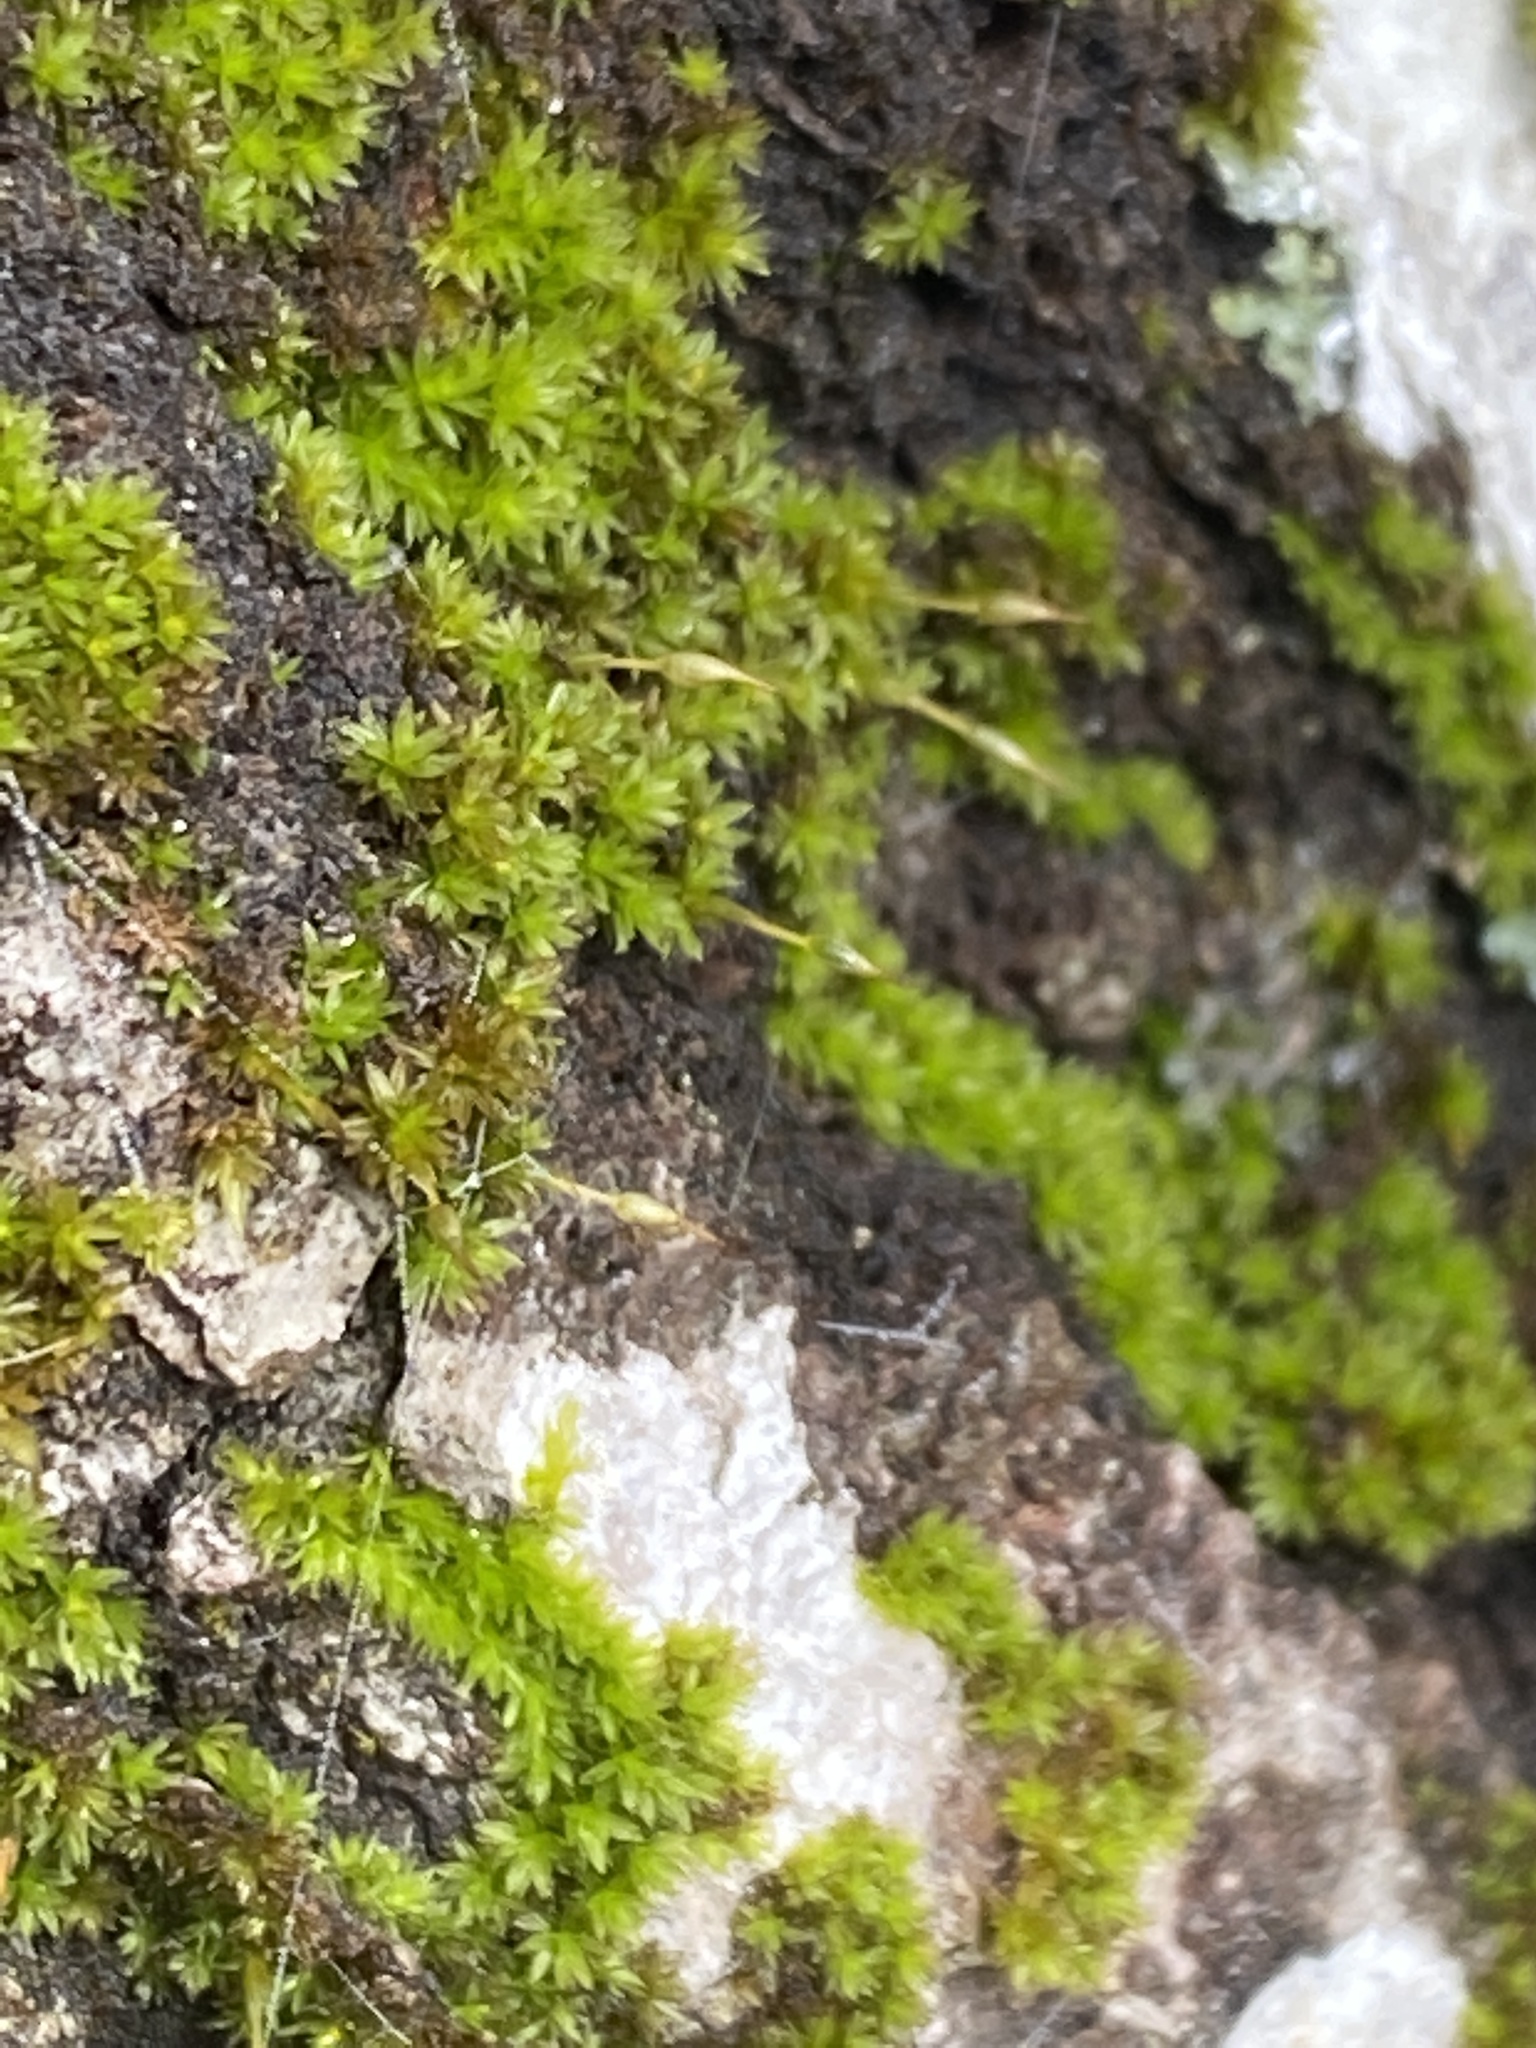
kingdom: Plantae
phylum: Bryophyta
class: Bryopsida
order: Scouleriales
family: Drummondiaceae
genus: Drummondia
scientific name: Drummondia prorepens
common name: Drummond's bark moss
